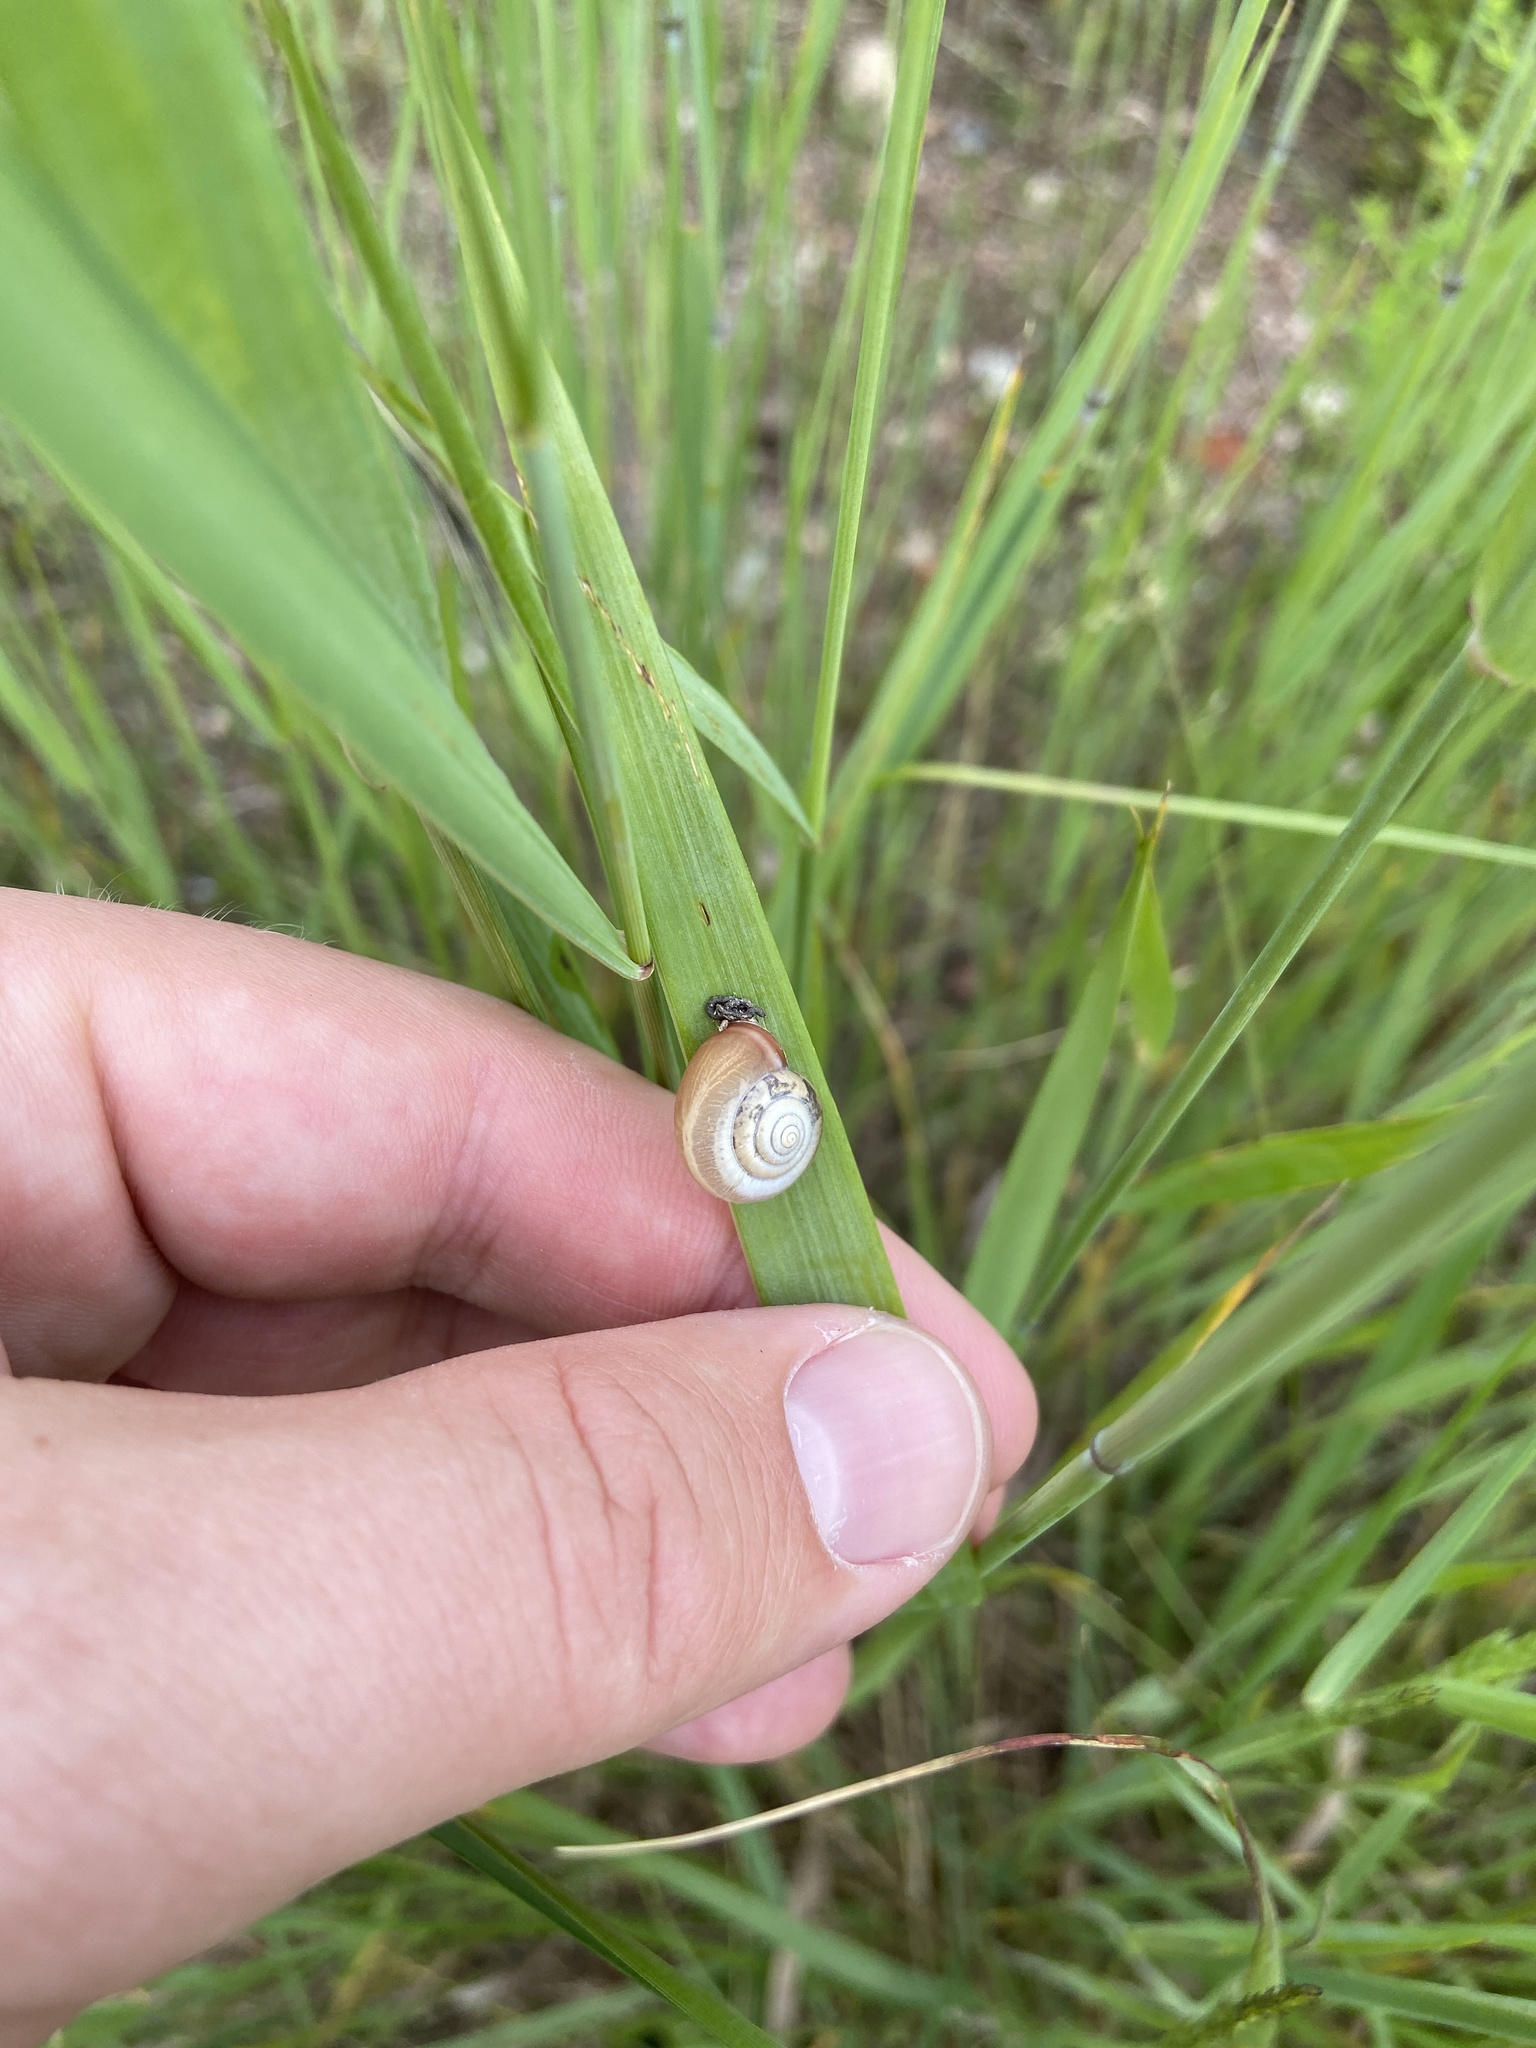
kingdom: Animalia
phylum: Mollusca
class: Gastropoda
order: Stylommatophora
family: Hygromiidae
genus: Monacha
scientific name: Monacha cartusiana
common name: Carthusian snail
